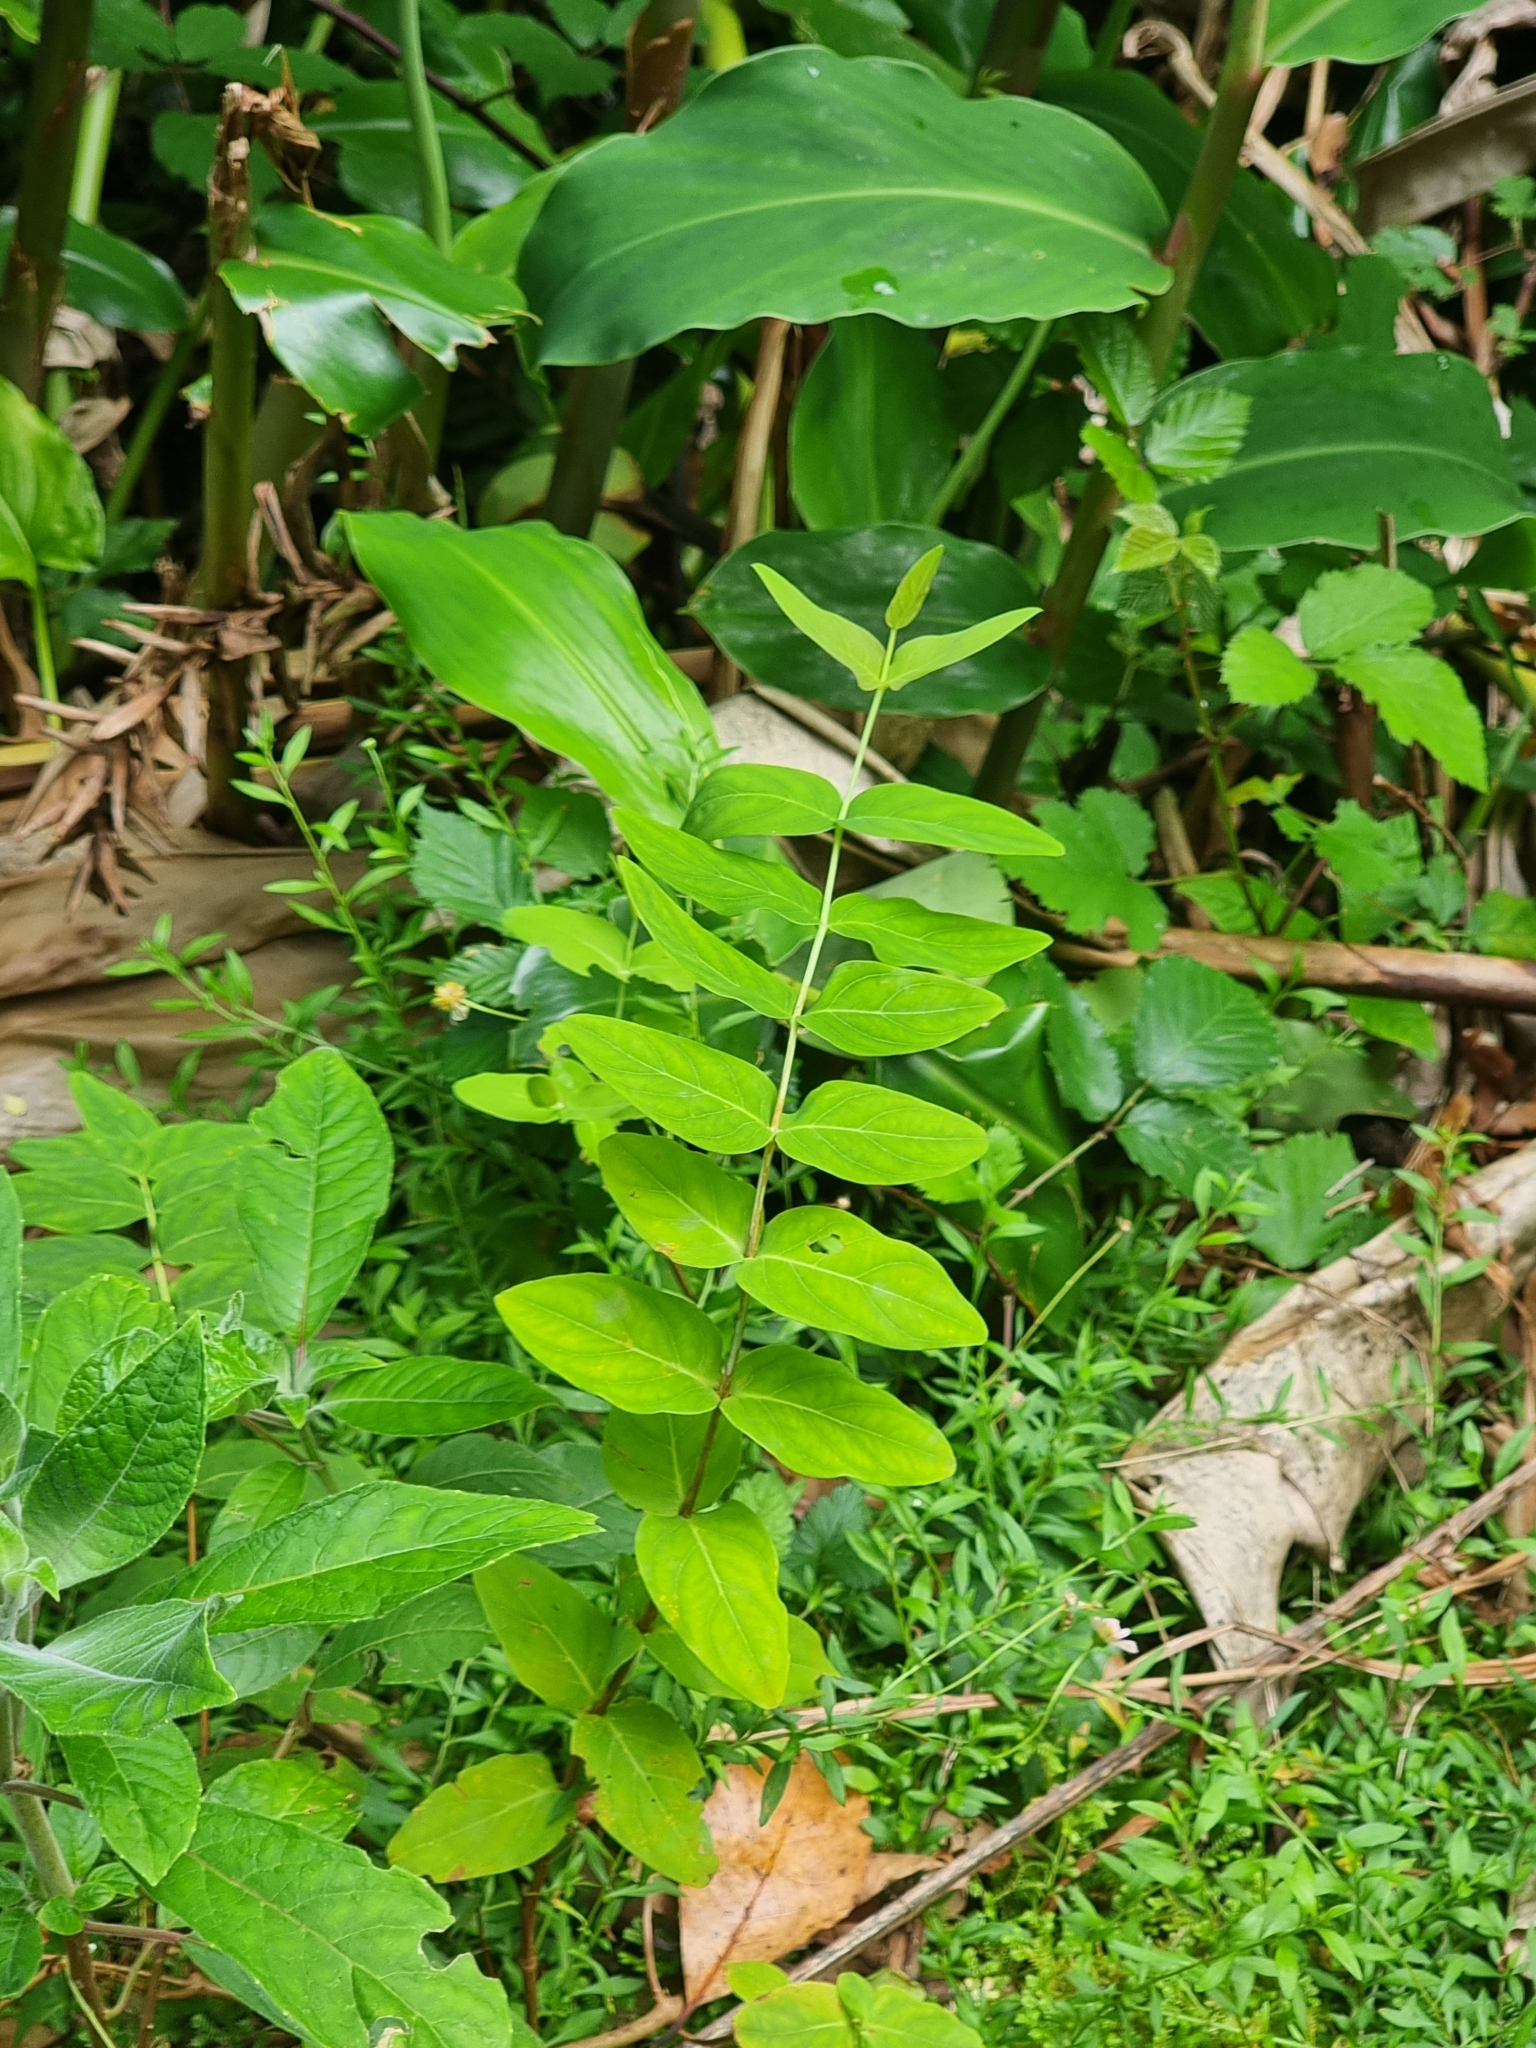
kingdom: Plantae
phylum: Tracheophyta
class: Magnoliopsida
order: Malpighiales
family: Hypericaceae
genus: Hypericum
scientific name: Hypericum grandifolium
